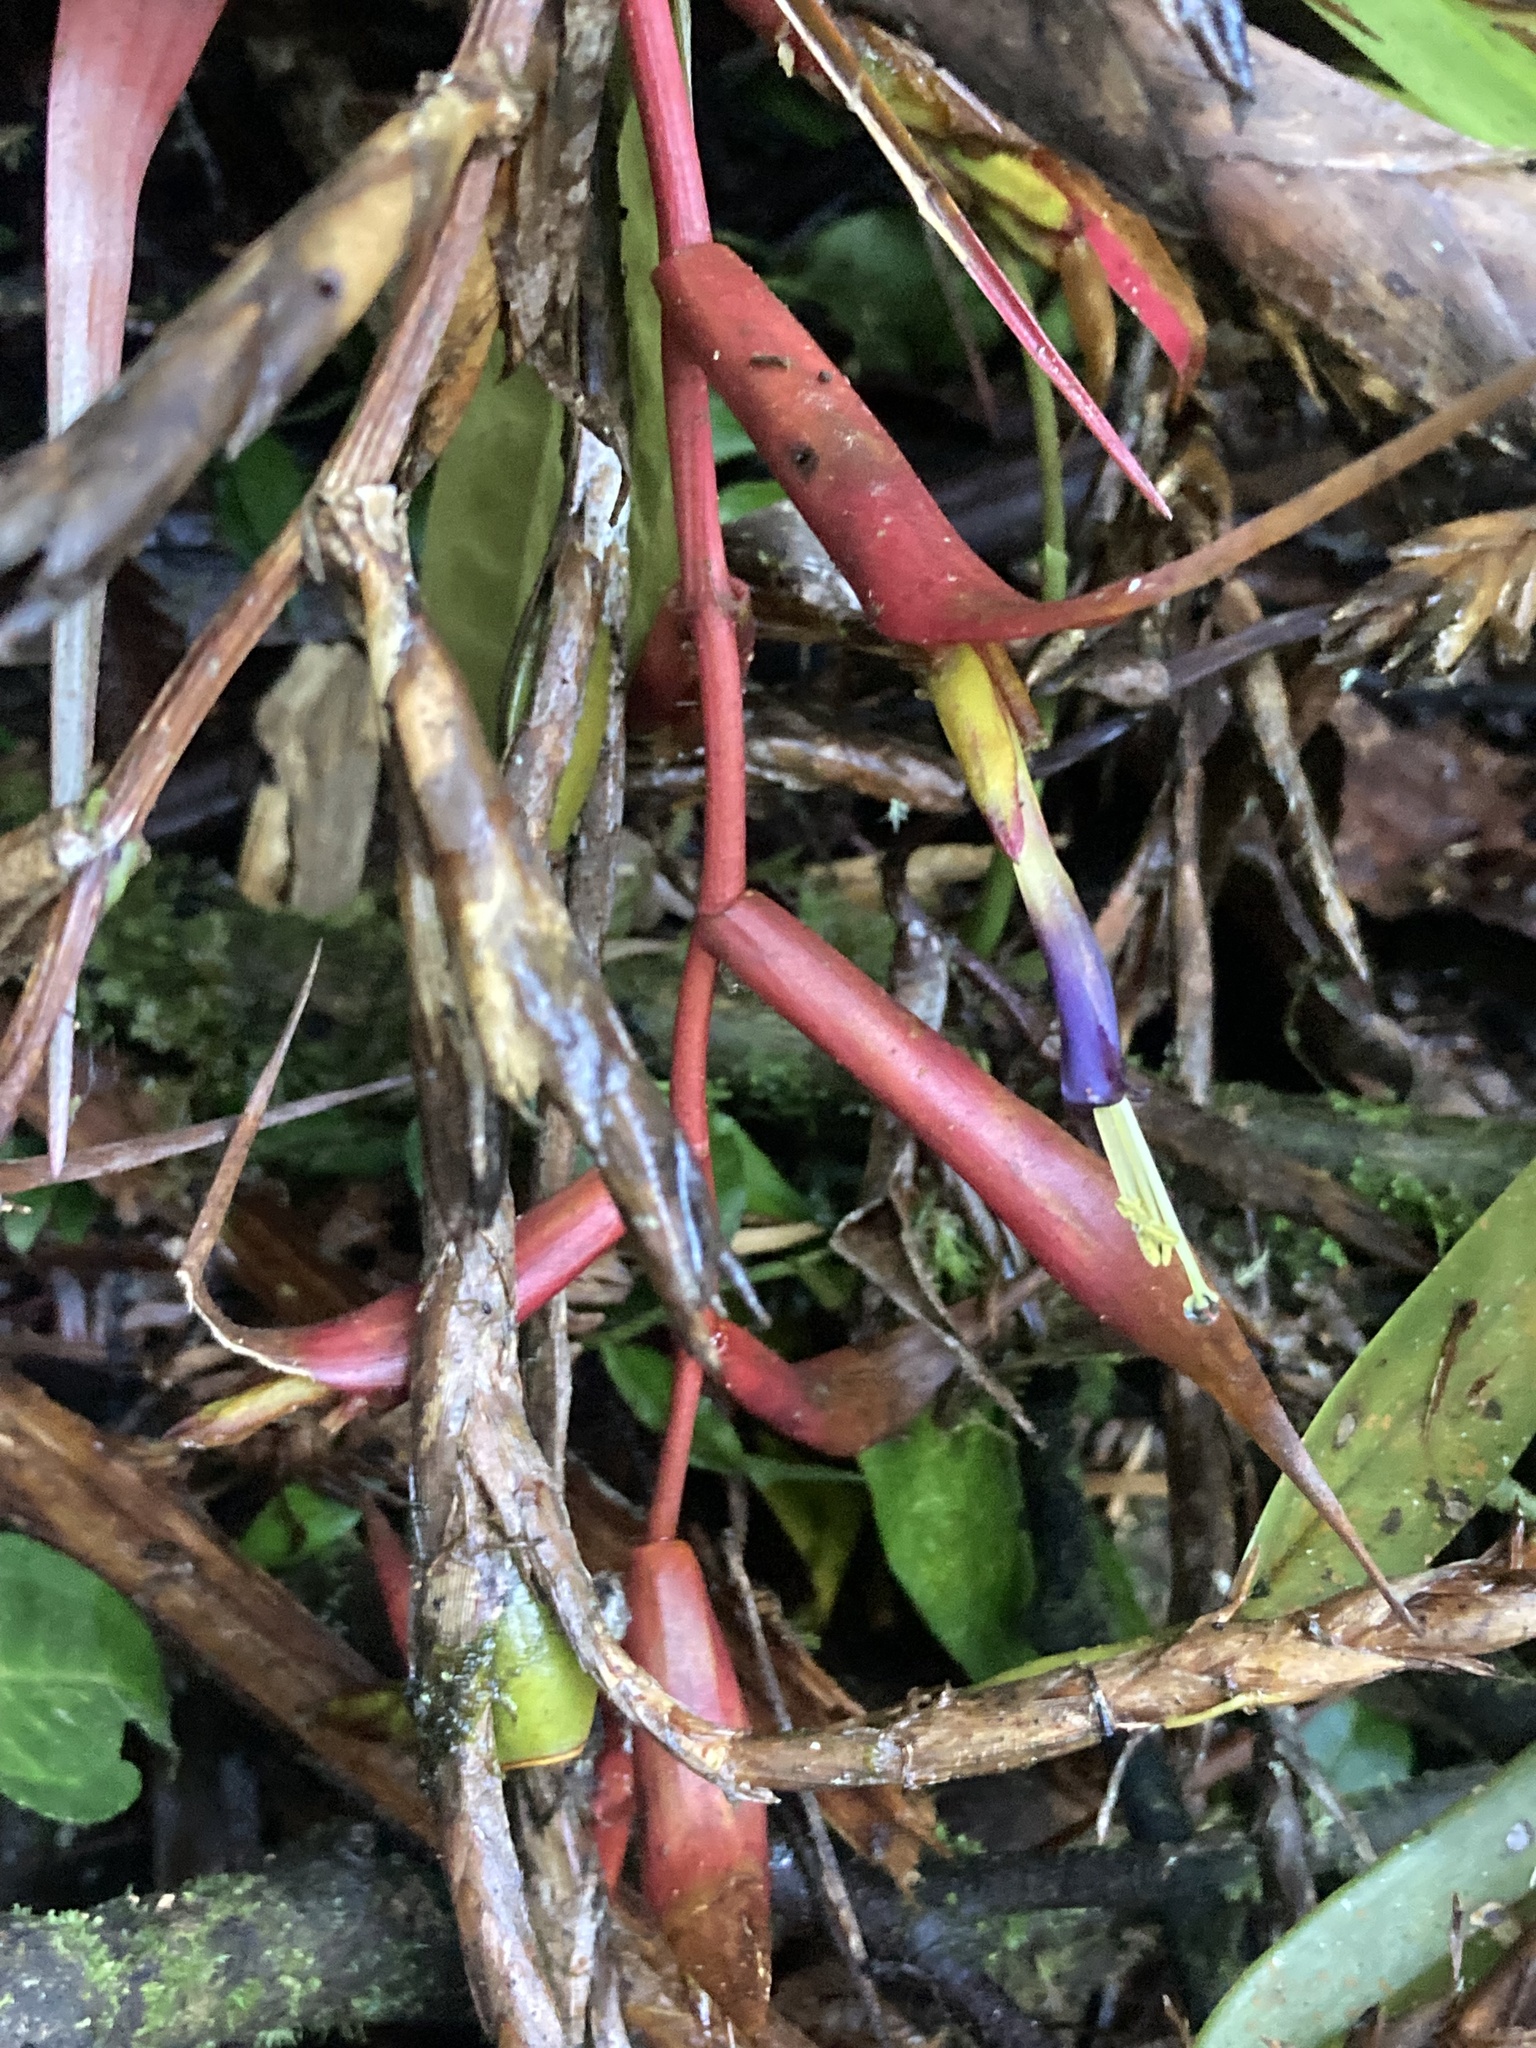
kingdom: Plantae
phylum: Tracheophyta
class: Liliopsida
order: Poales
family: Bromeliaceae
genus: Tillandsia
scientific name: Tillandsia orogenes
